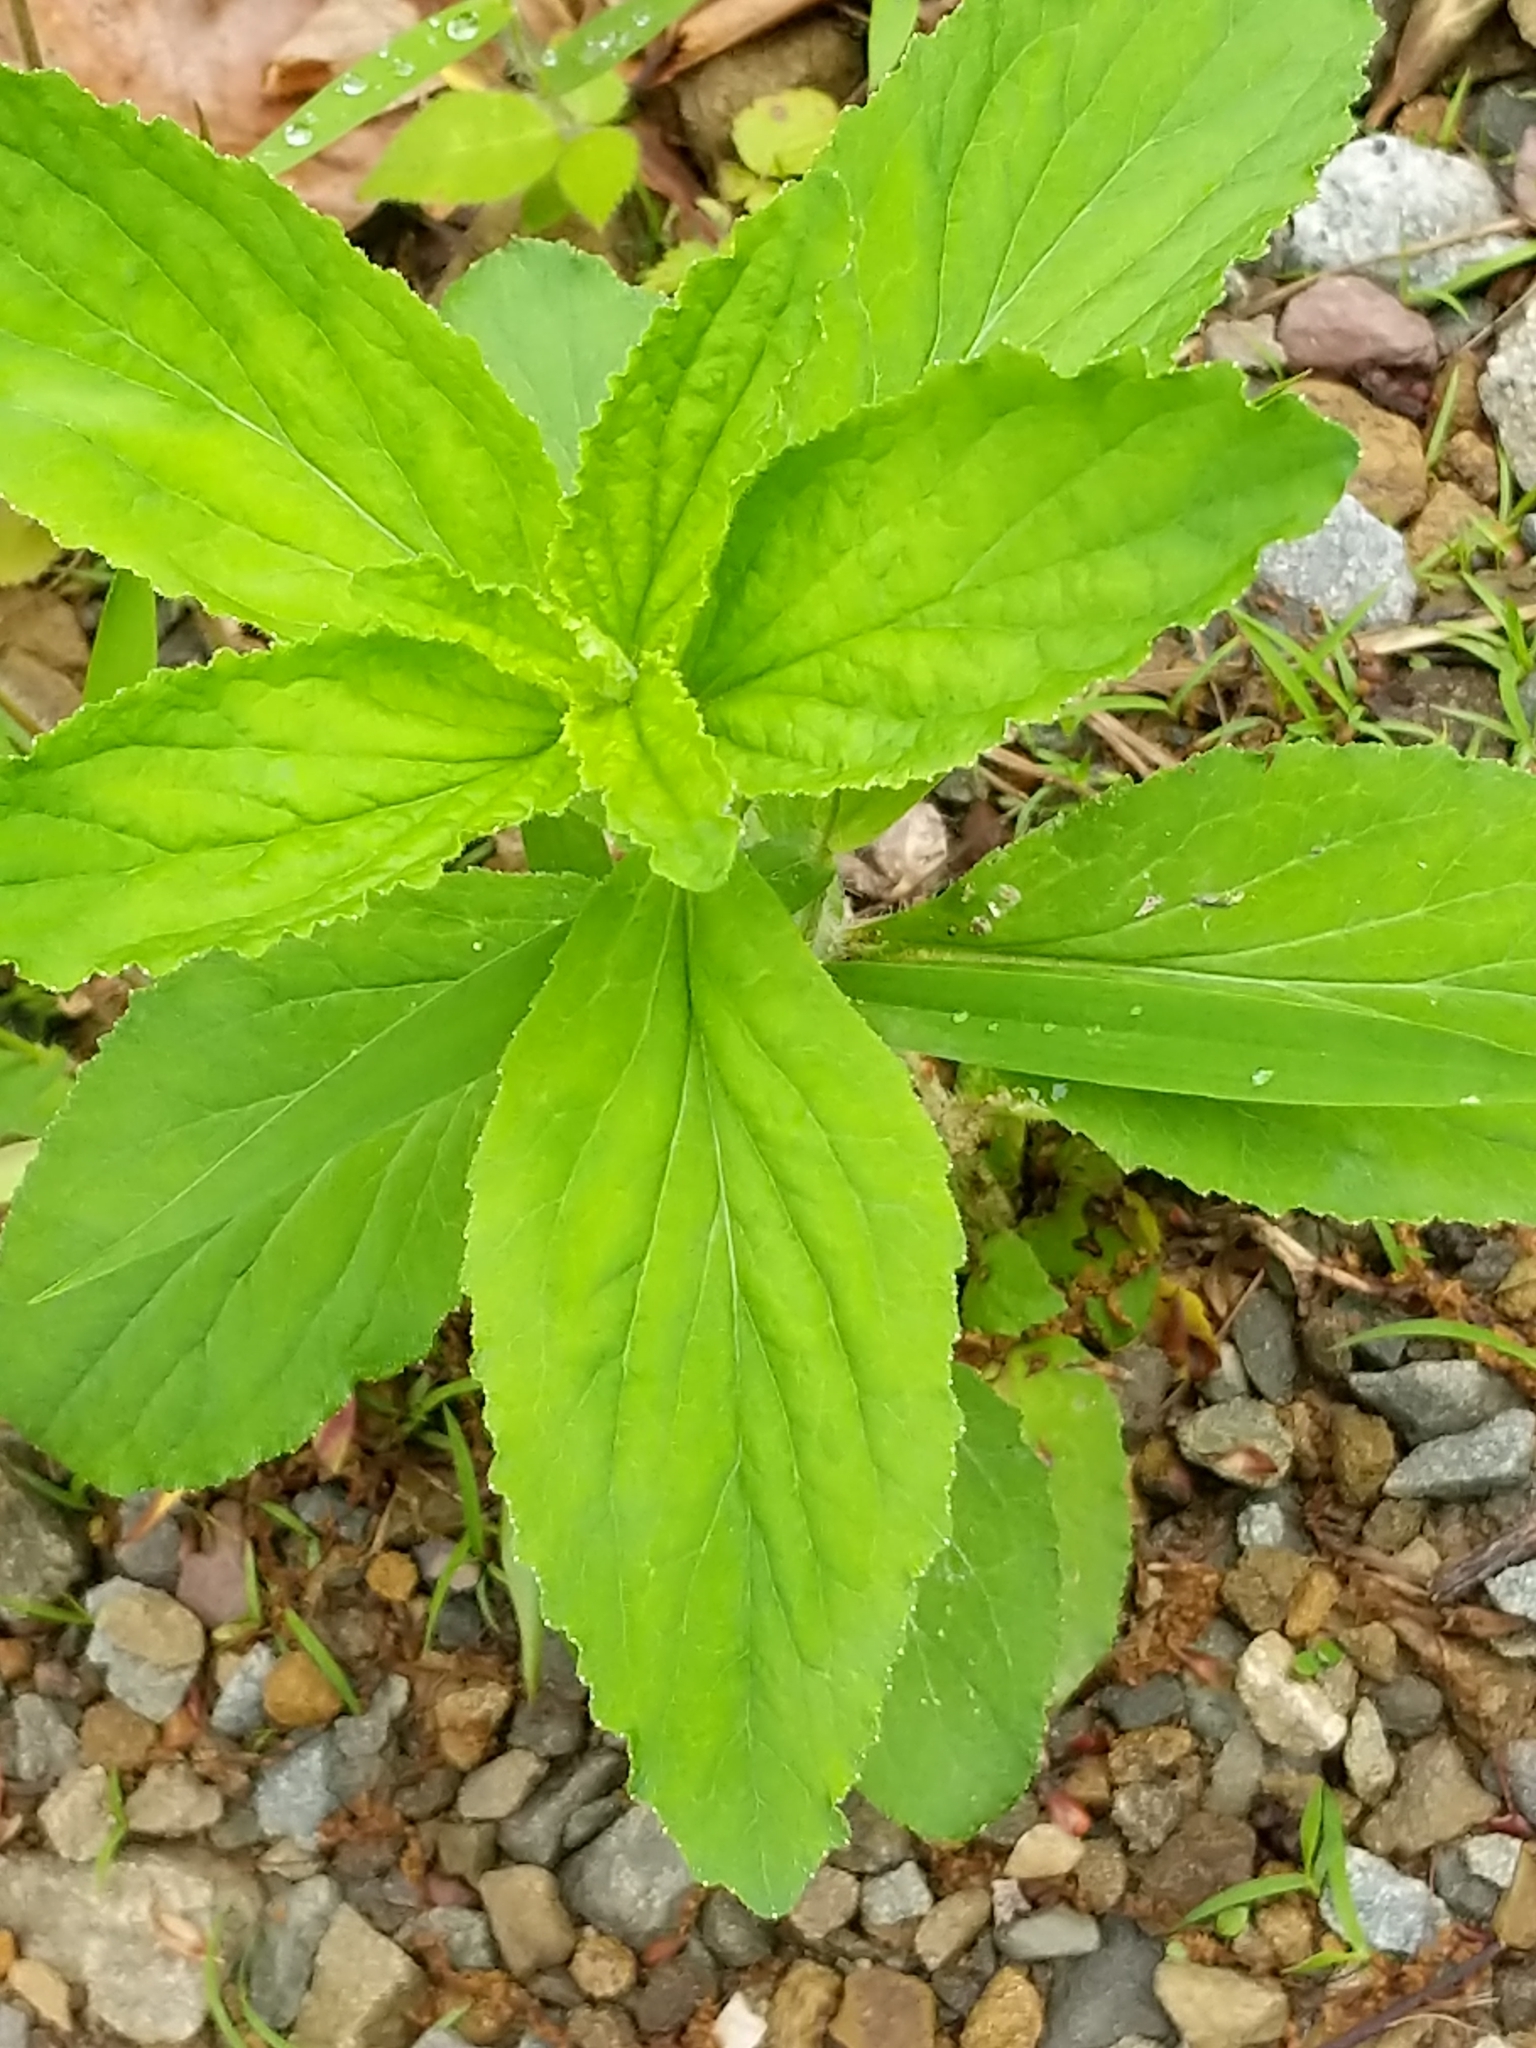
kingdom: Plantae
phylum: Tracheophyta
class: Magnoliopsida
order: Asterales
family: Campanulaceae
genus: Lobelia
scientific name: Lobelia inflata
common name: Indian tobacco
